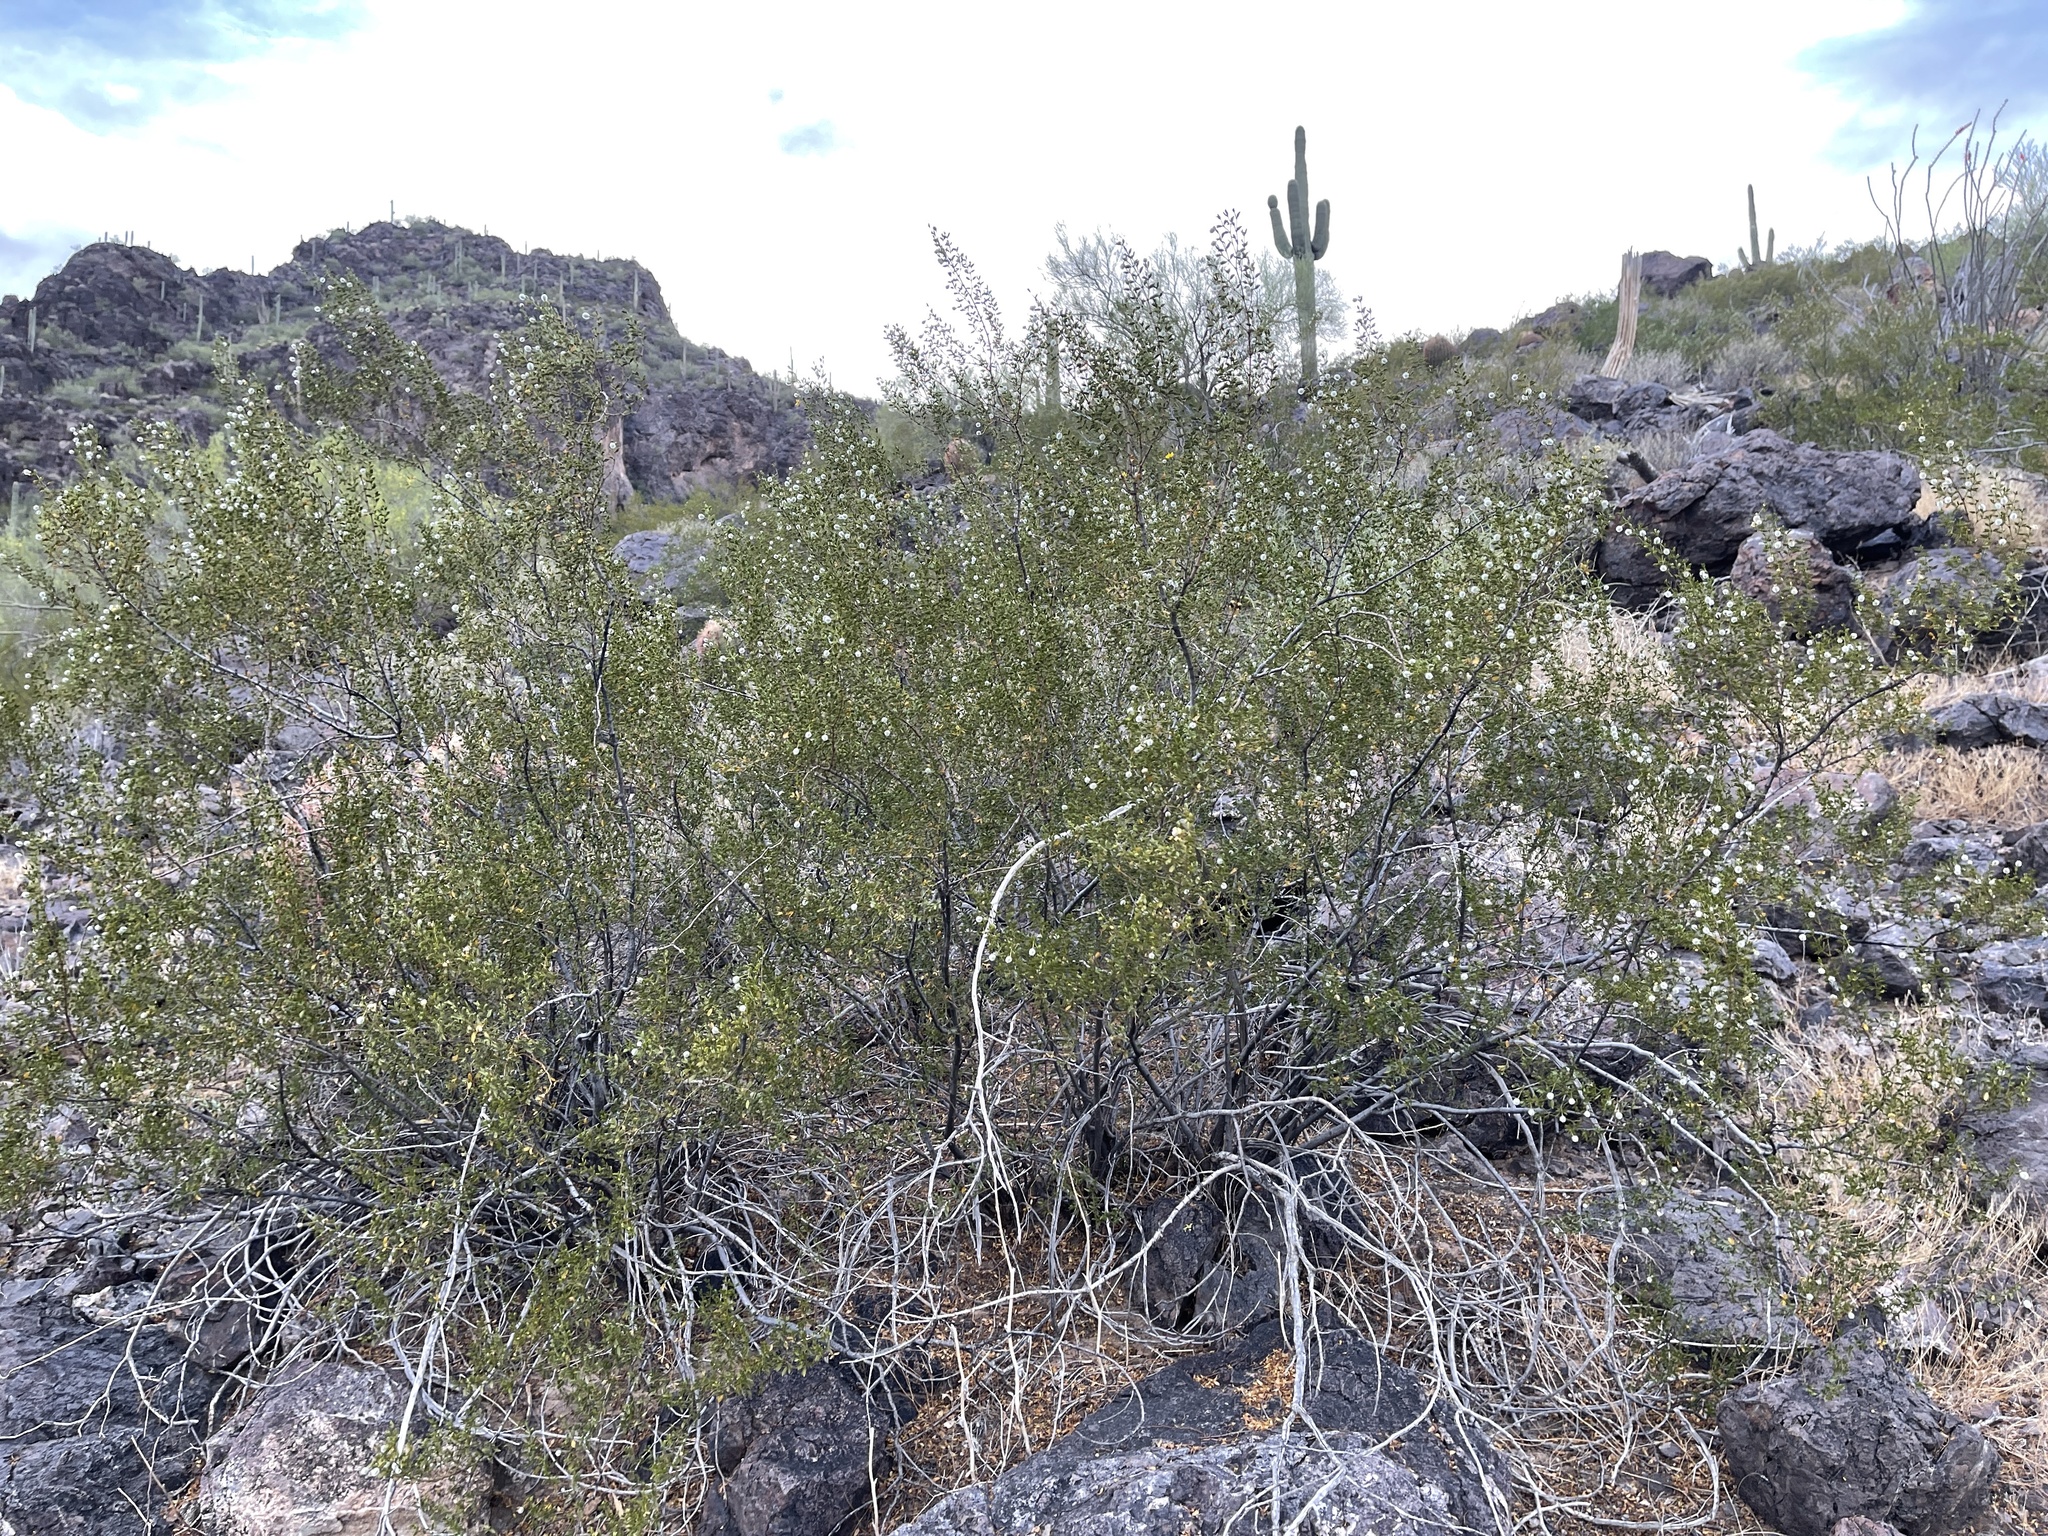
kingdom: Plantae
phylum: Tracheophyta
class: Magnoliopsida
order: Zygophyllales
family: Zygophyllaceae
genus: Larrea
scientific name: Larrea tridentata
